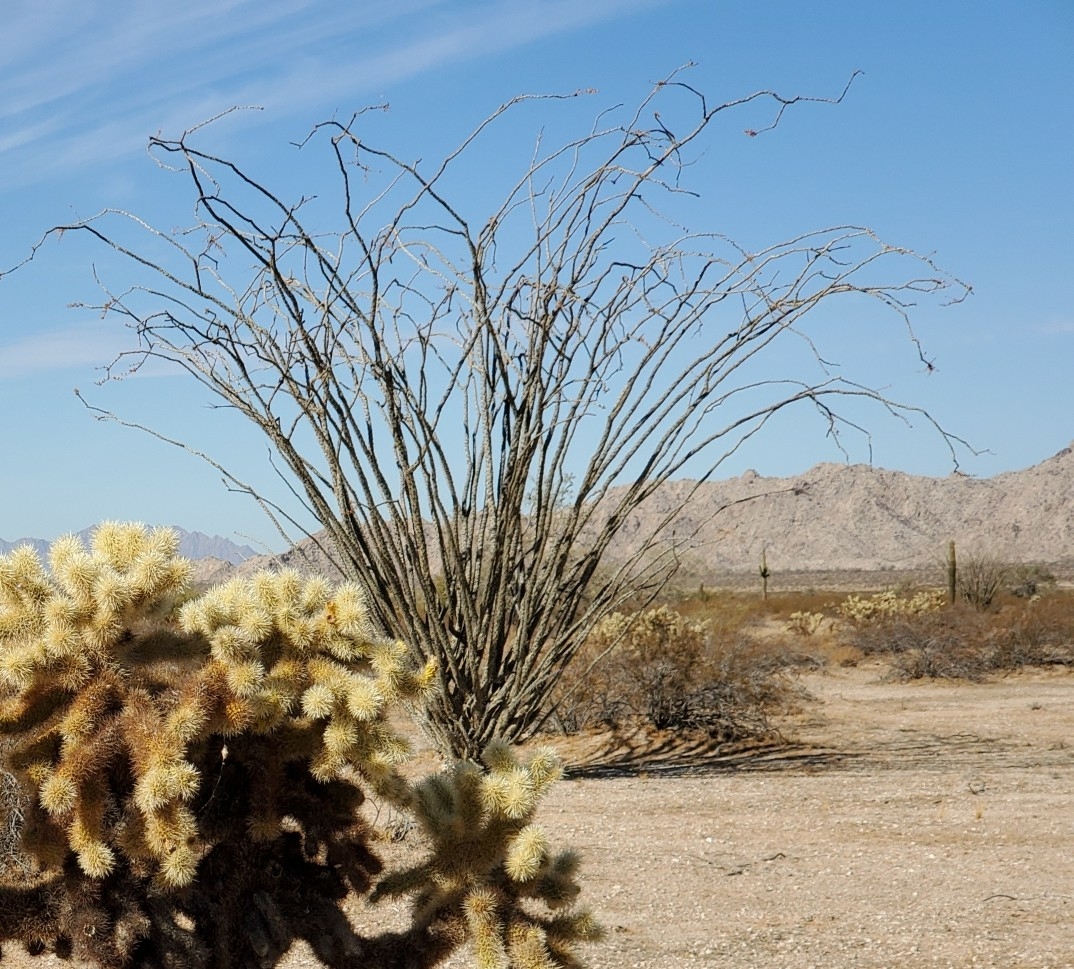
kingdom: Plantae
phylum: Tracheophyta
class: Magnoliopsida
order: Ericales
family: Fouquieriaceae
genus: Fouquieria
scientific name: Fouquieria splendens
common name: Vine-cactus
